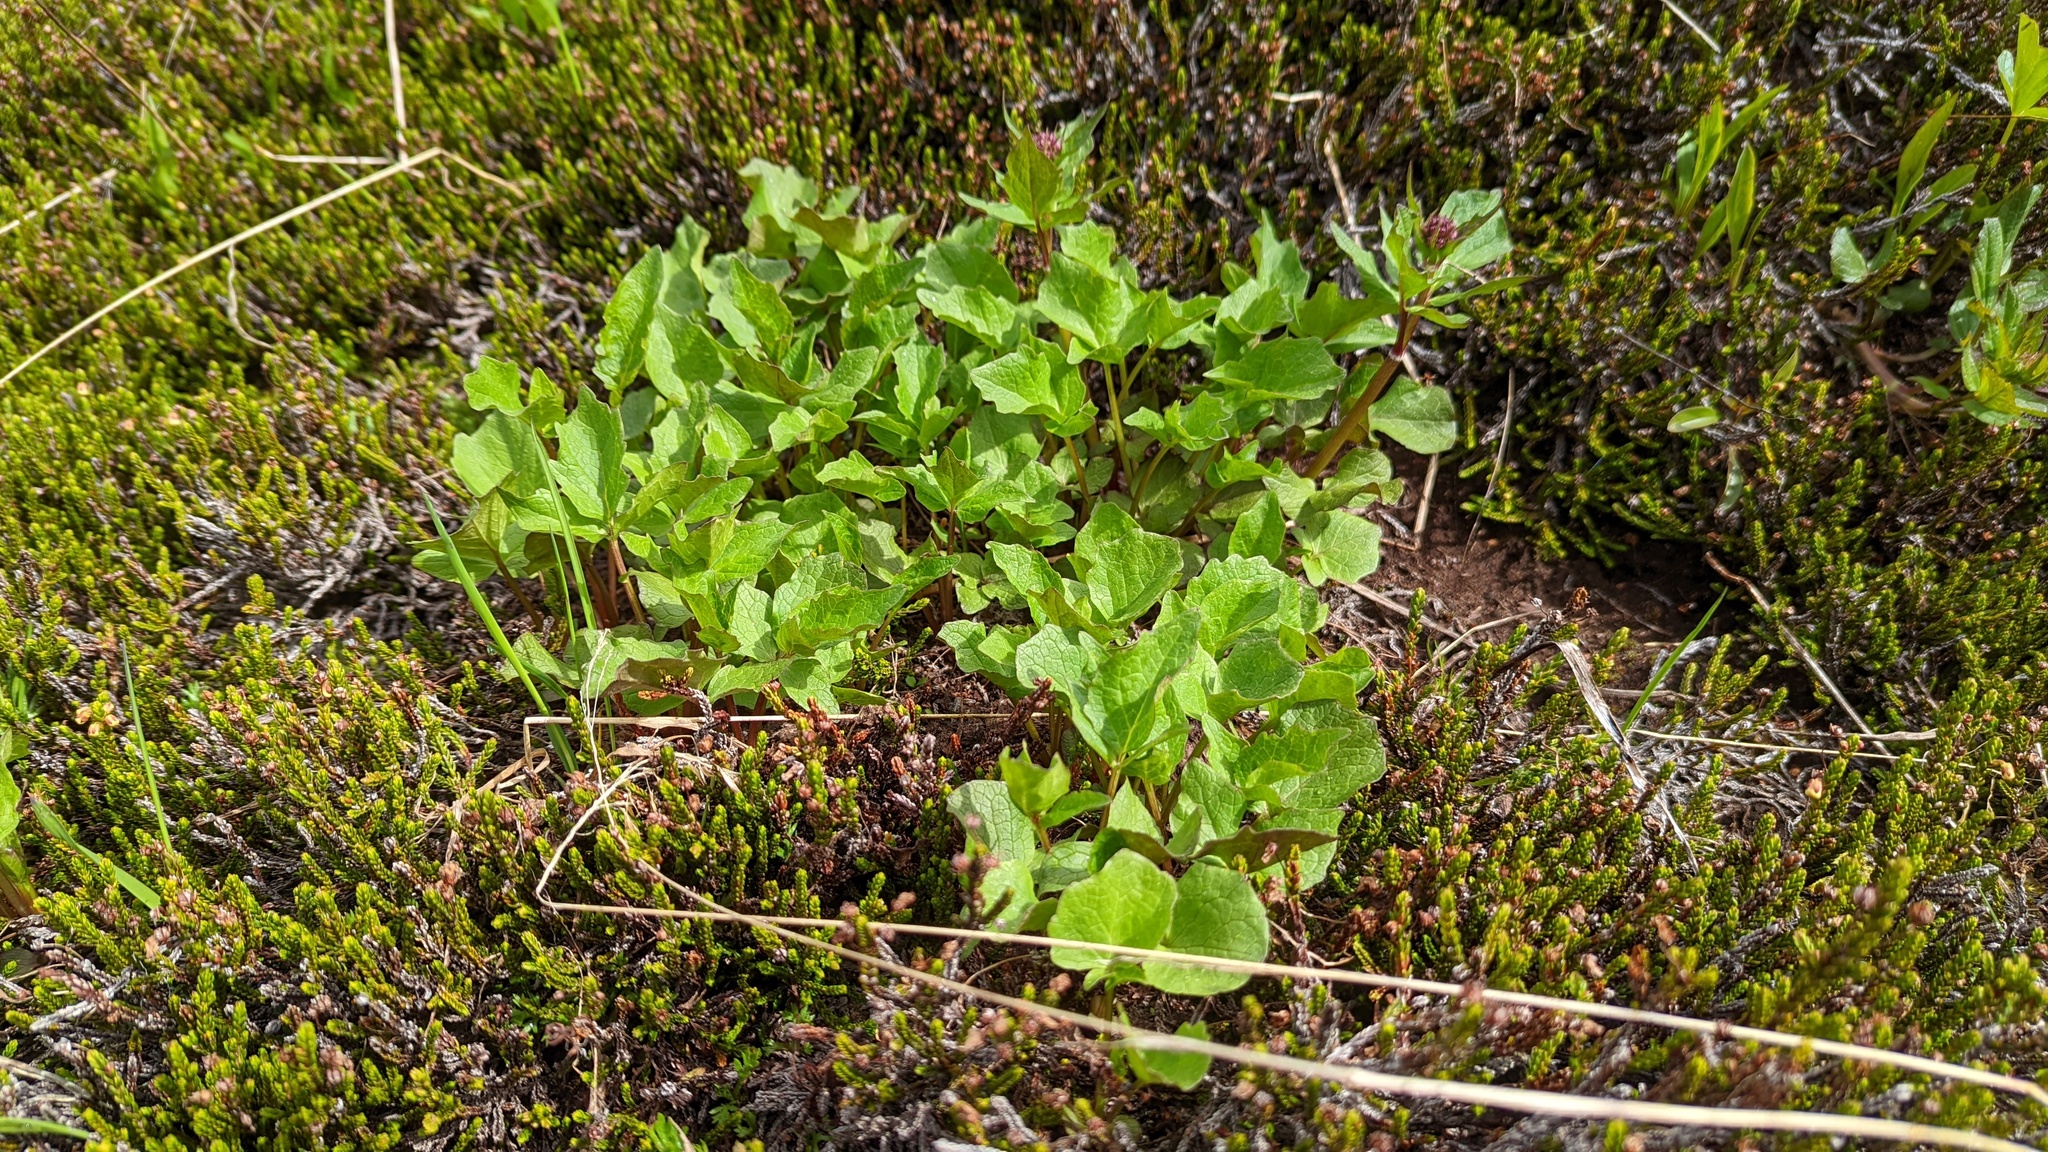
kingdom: Plantae
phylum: Tracheophyta
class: Magnoliopsida
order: Dipsacales
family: Caprifoliaceae
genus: Valeriana
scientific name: Valeriana sitchensis
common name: Pacific valerian
